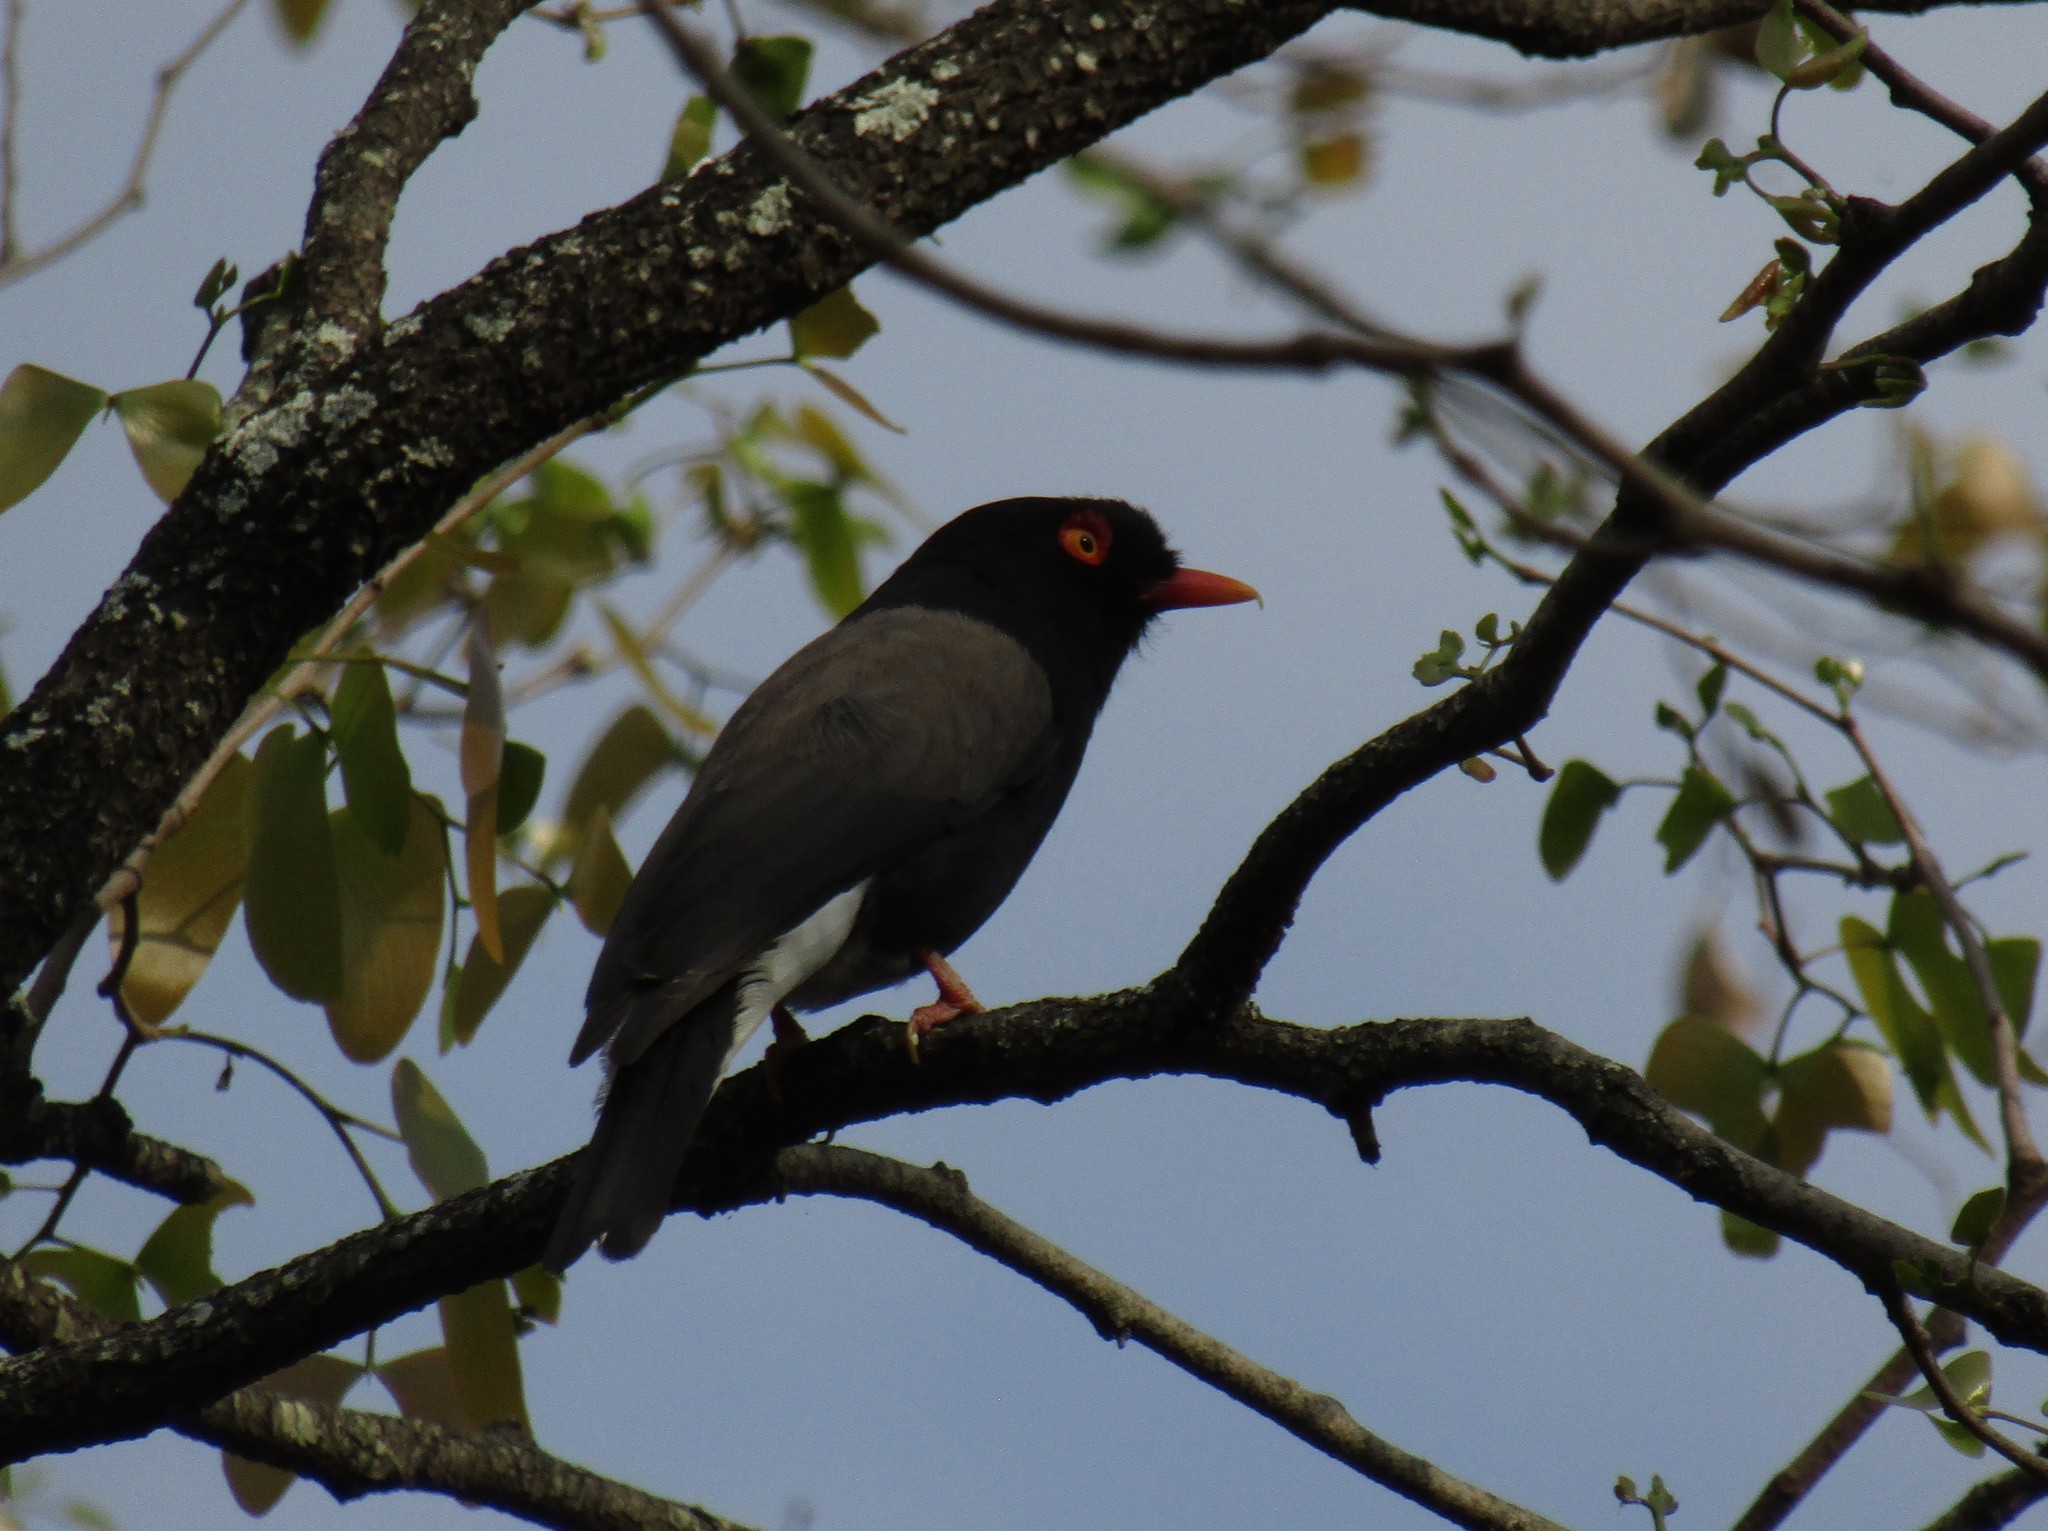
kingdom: Animalia
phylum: Chordata
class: Aves
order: Passeriformes
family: Prionopidae
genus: Prionops
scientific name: Prionops retzii
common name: Retz's helmetshrike
